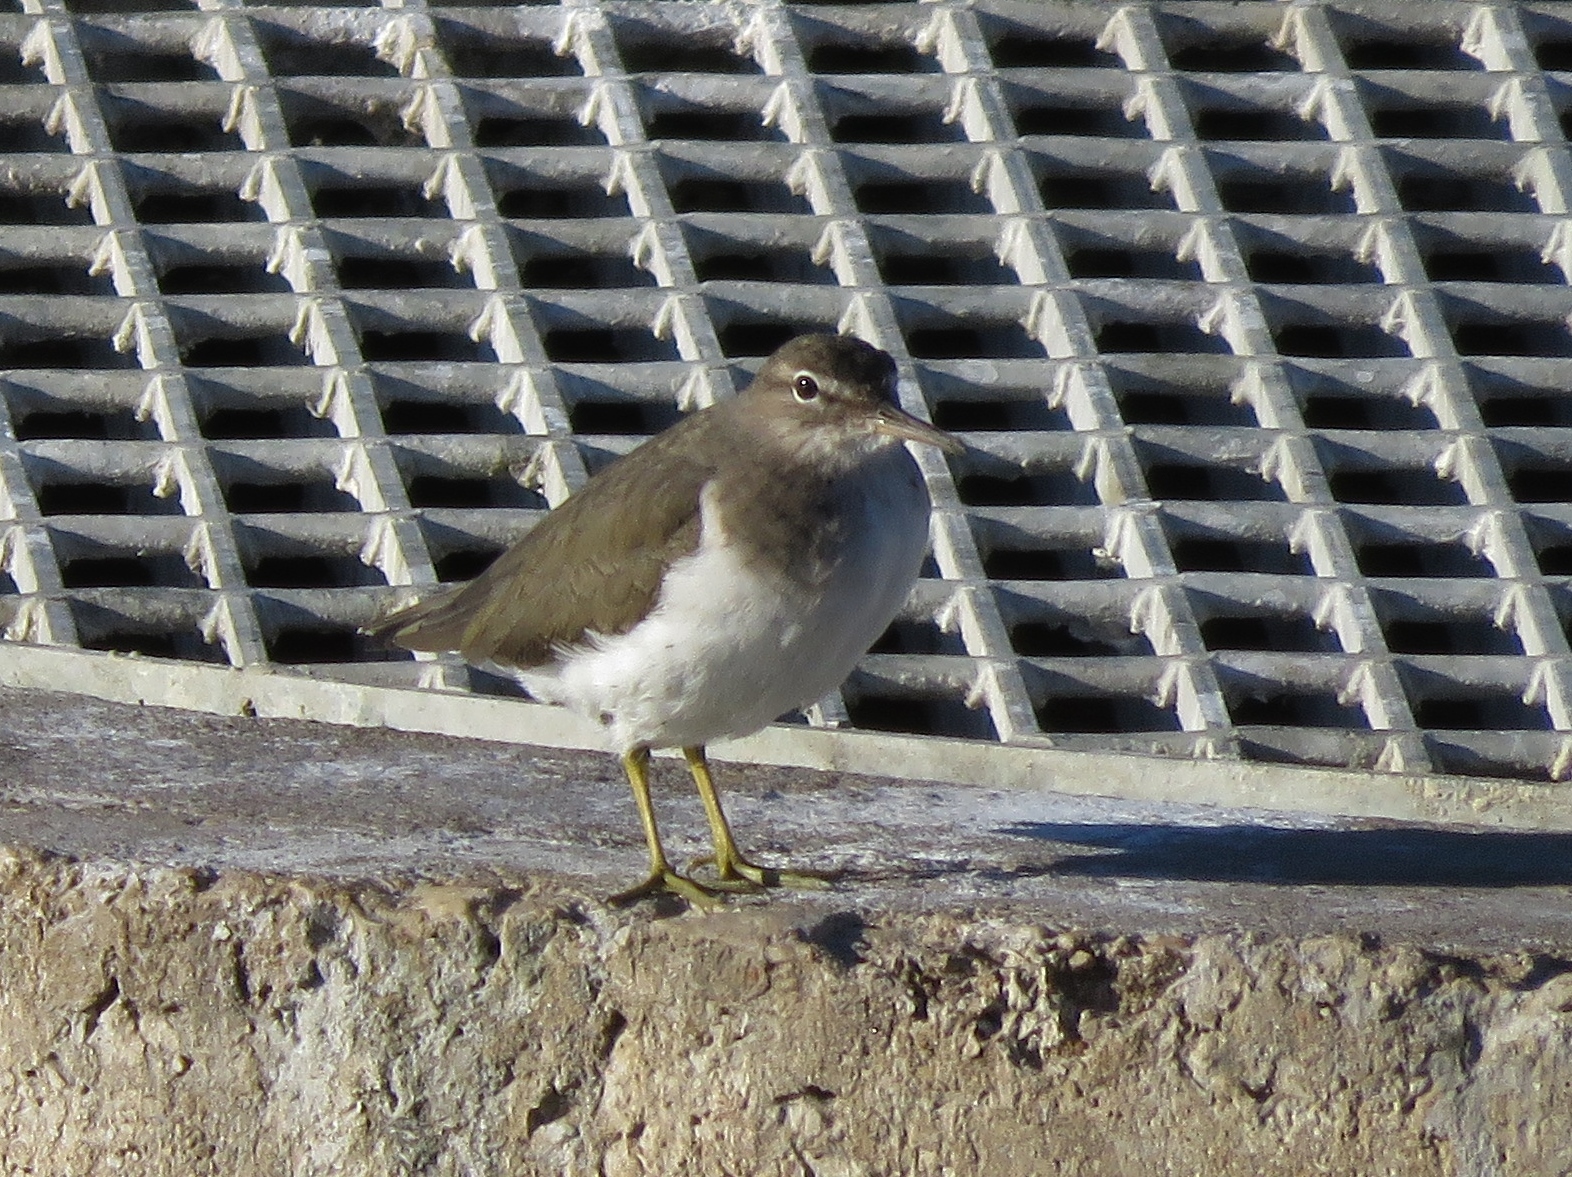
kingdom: Animalia
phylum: Chordata
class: Aves
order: Charadriiformes
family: Scolopacidae
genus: Actitis
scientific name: Actitis macularius
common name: Spotted sandpiper
